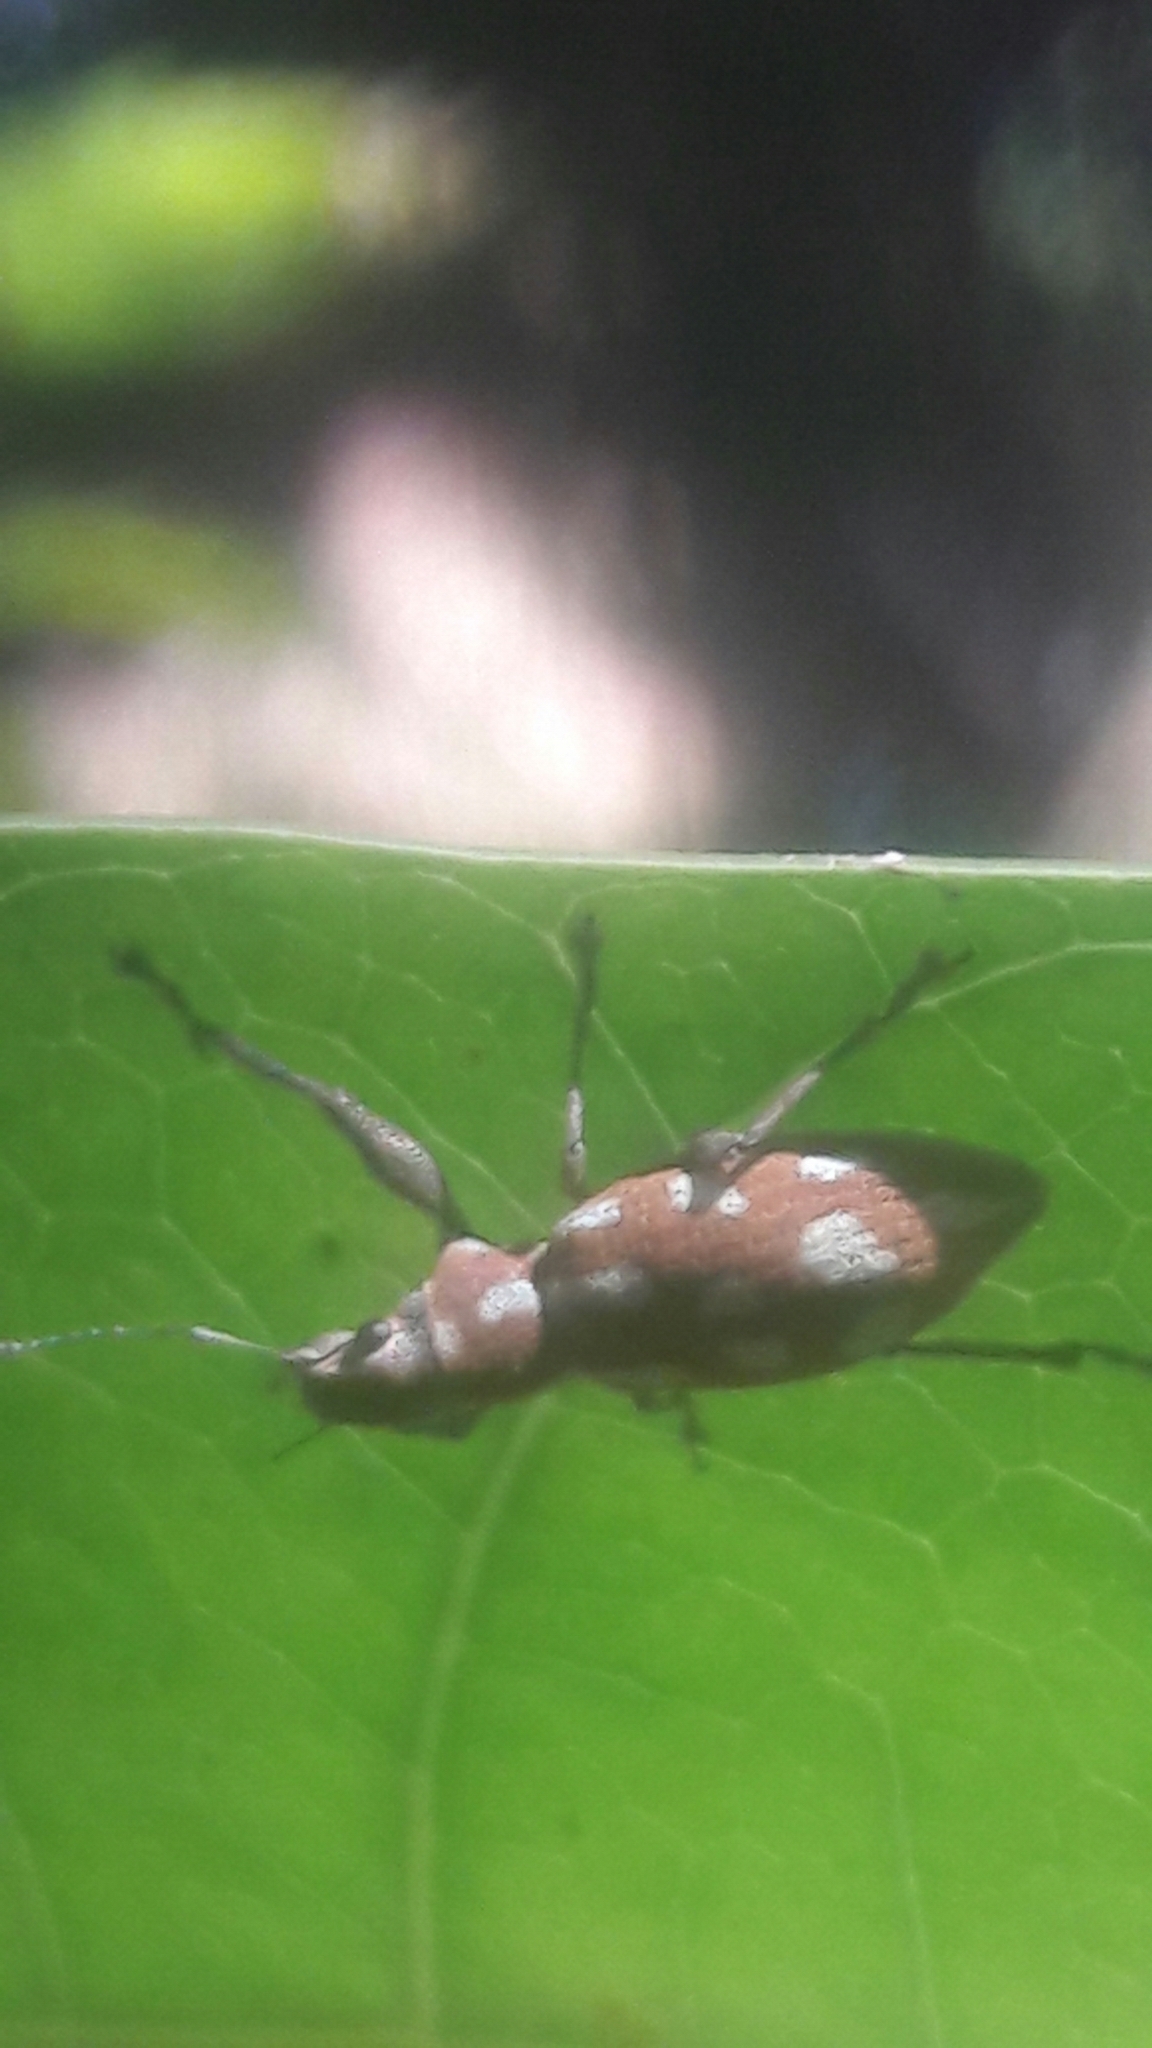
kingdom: Animalia
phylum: Arthropoda
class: Insecta
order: Coleoptera
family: Curculionidae
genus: Naupactus
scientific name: Naupactus bellus
